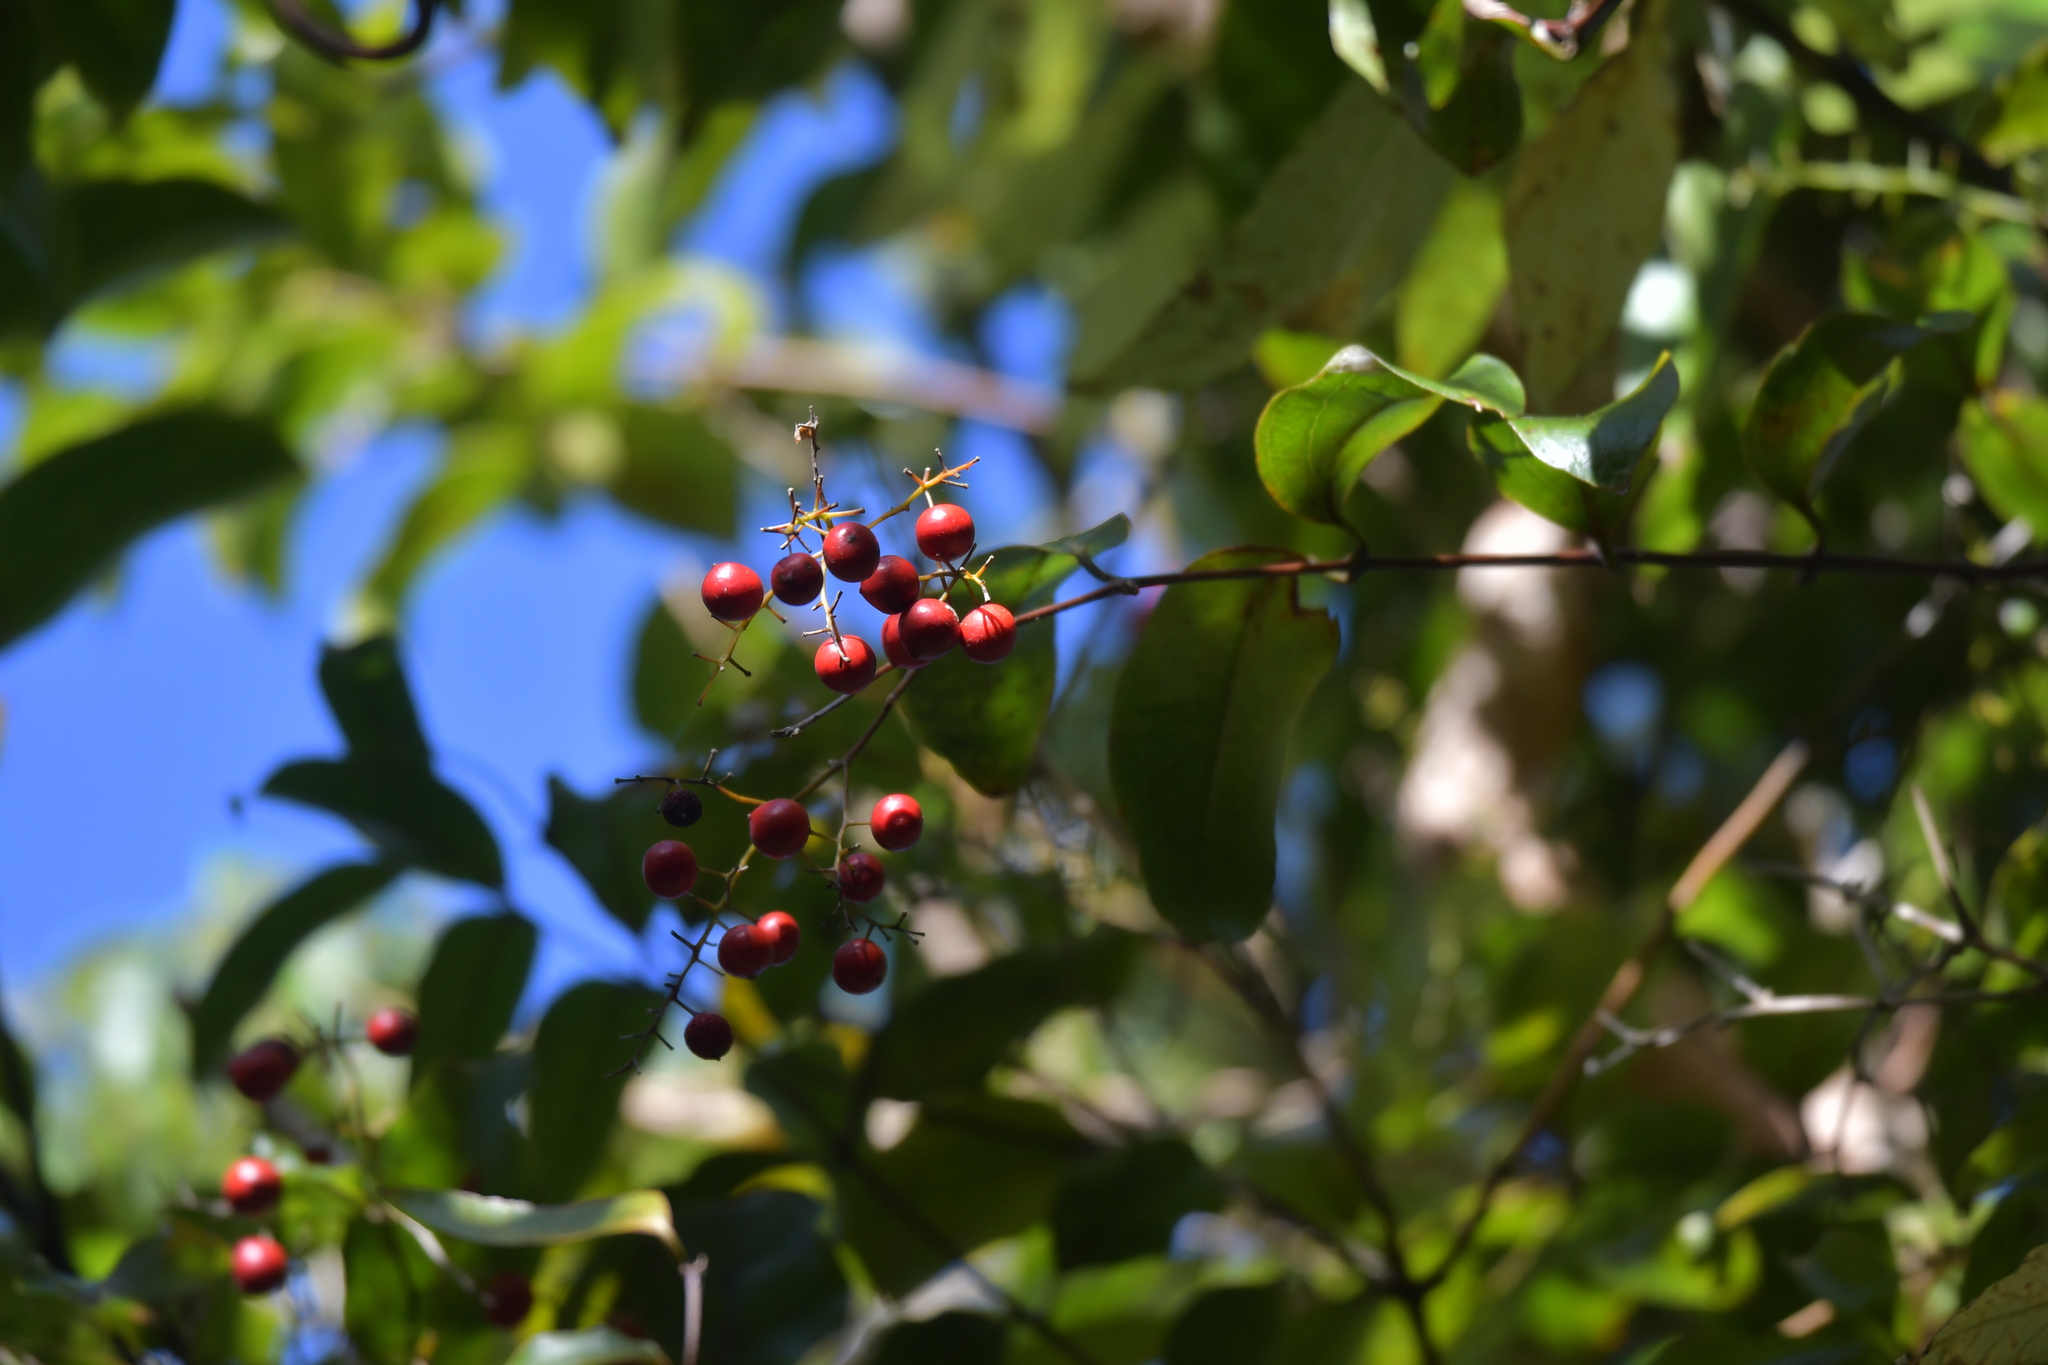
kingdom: Plantae
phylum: Tracheophyta
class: Liliopsida
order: Liliales
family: Ripogonaceae
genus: Ripogonum
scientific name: Ripogonum scandens
